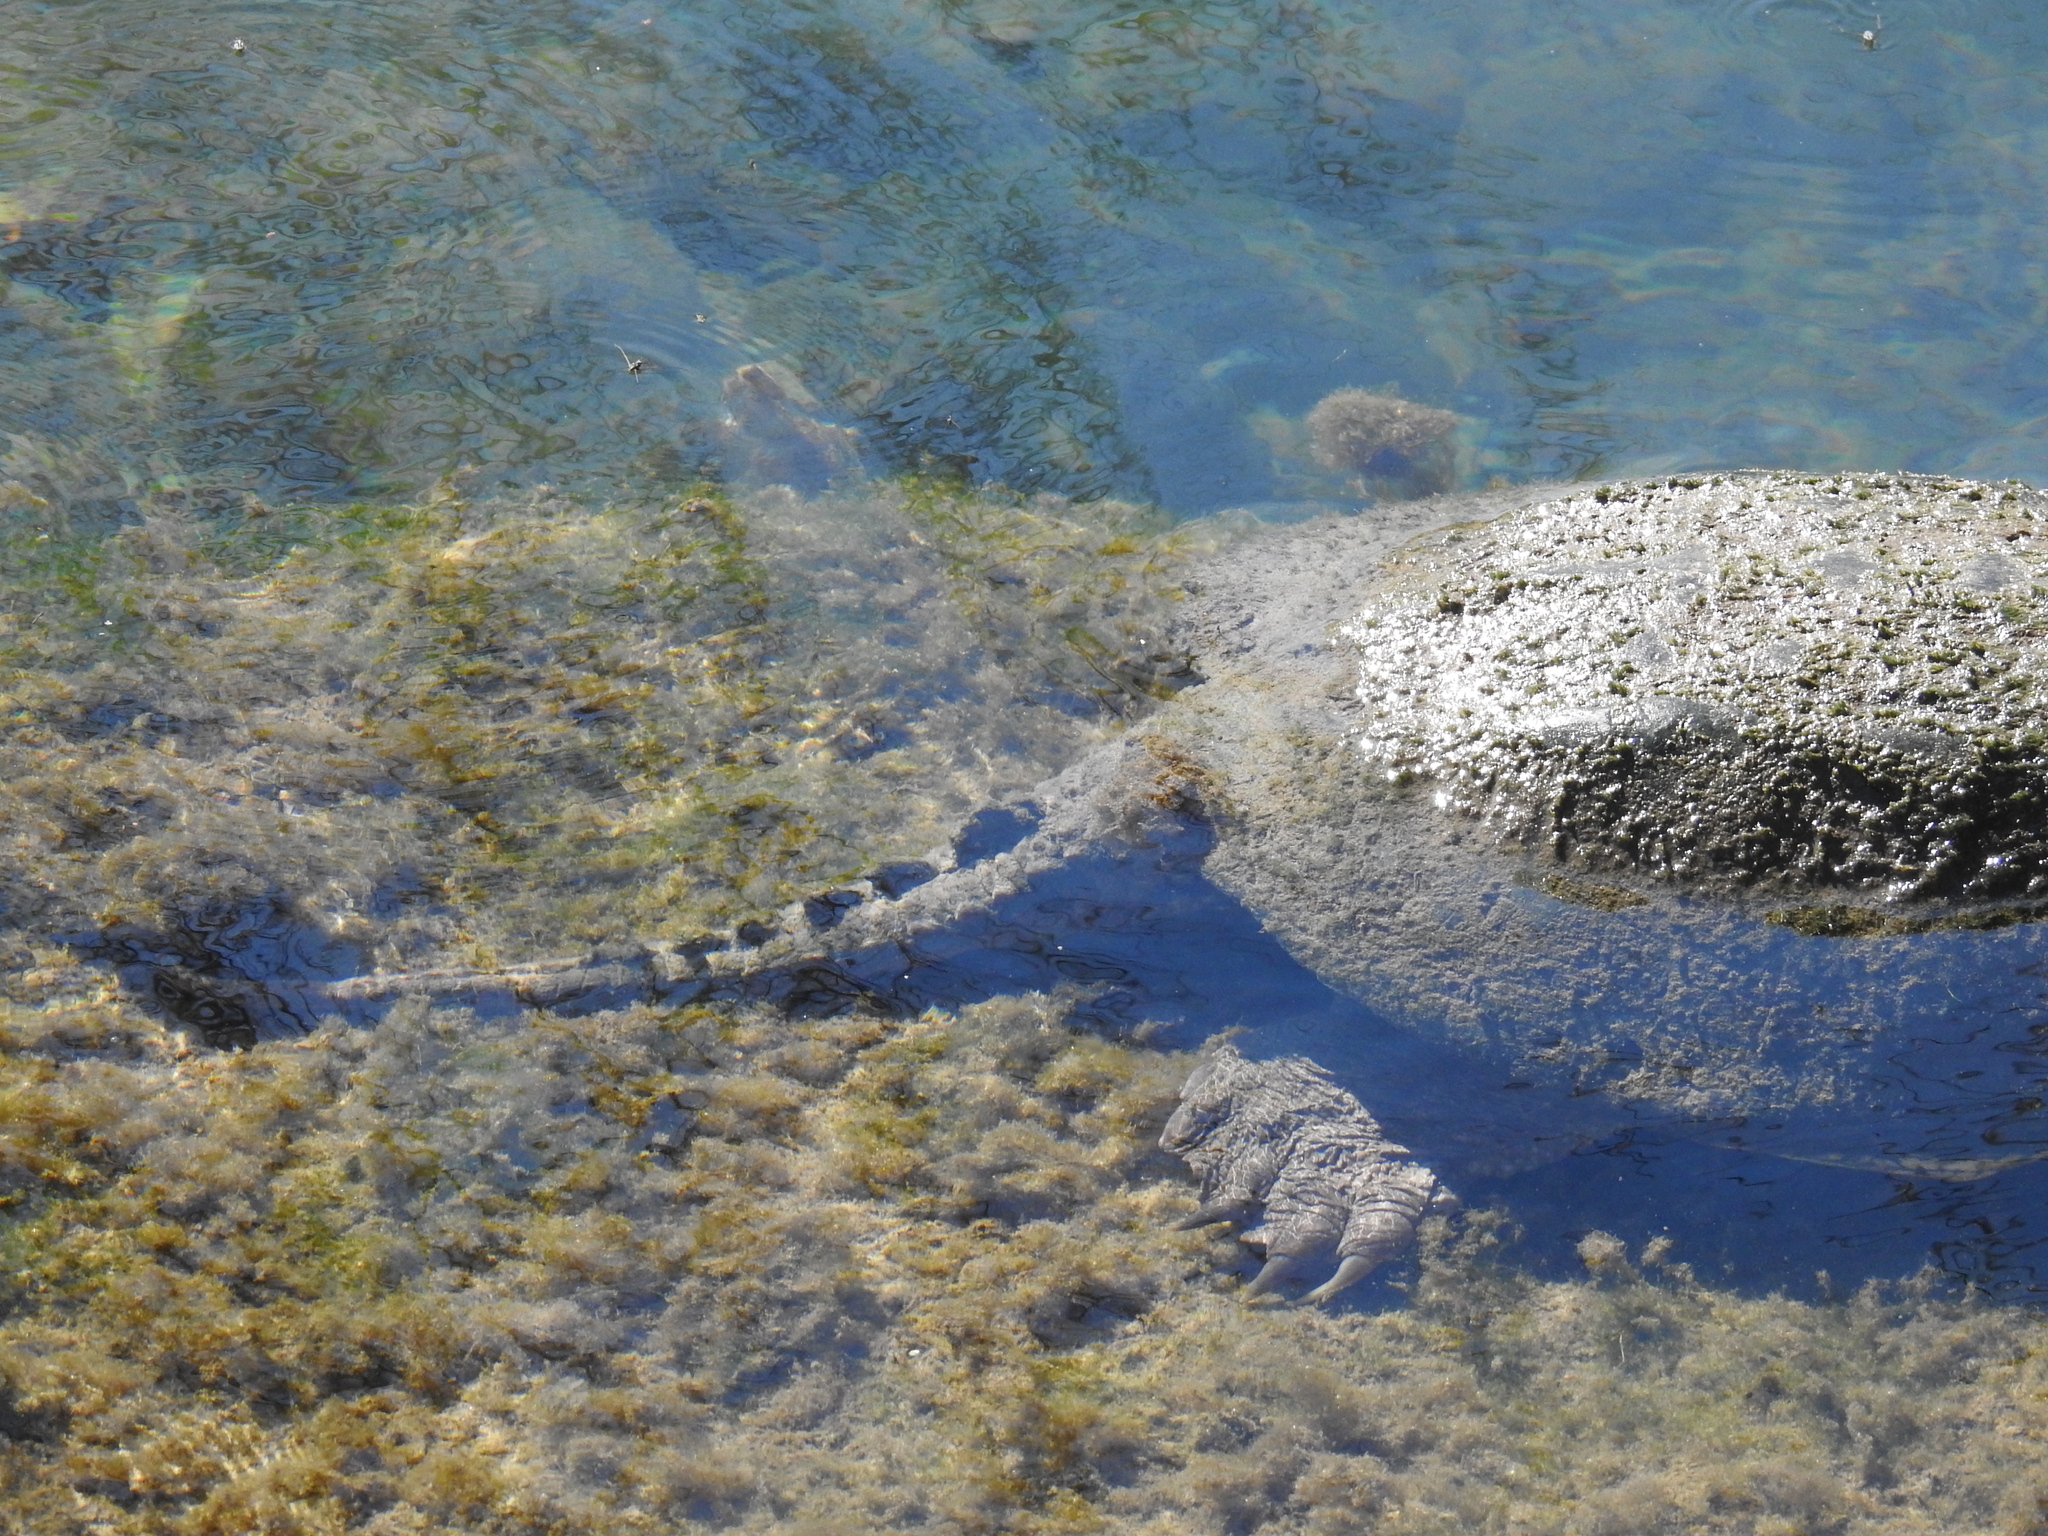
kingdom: Animalia
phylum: Chordata
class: Testudines
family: Chelydridae
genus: Chelydra
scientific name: Chelydra serpentina
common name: Common snapping turtle
